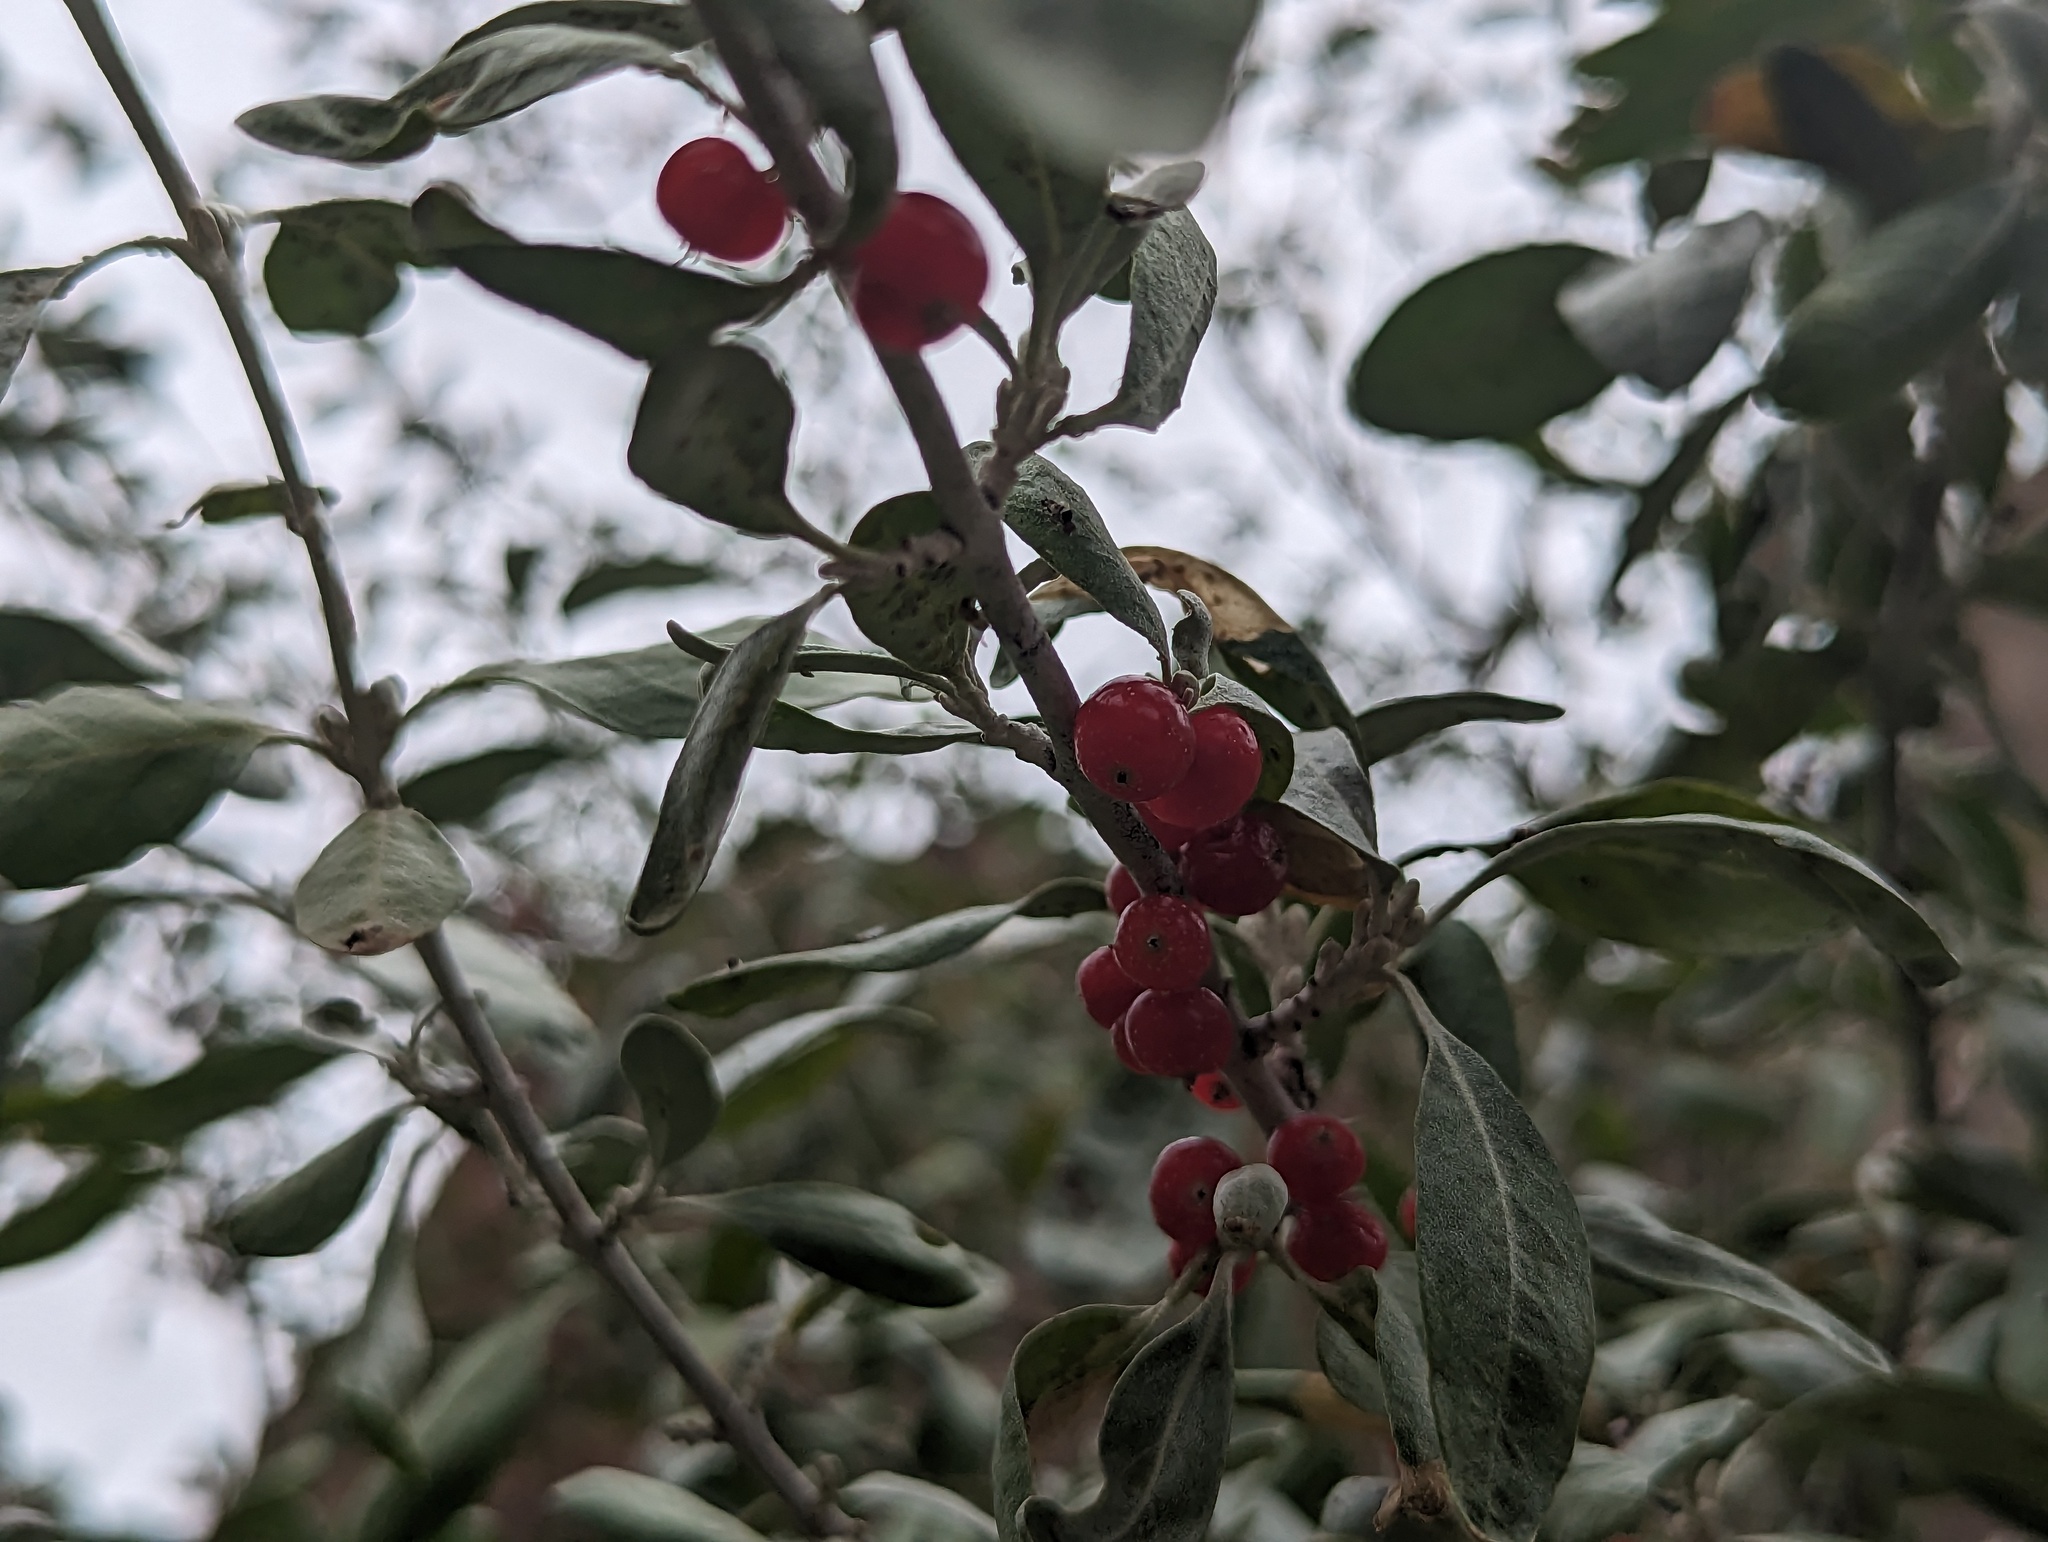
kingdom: Plantae
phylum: Tracheophyta
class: Magnoliopsida
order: Rosales
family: Elaeagnaceae
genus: Shepherdia
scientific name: Shepherdia argentea
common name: Silver buffaloberry
